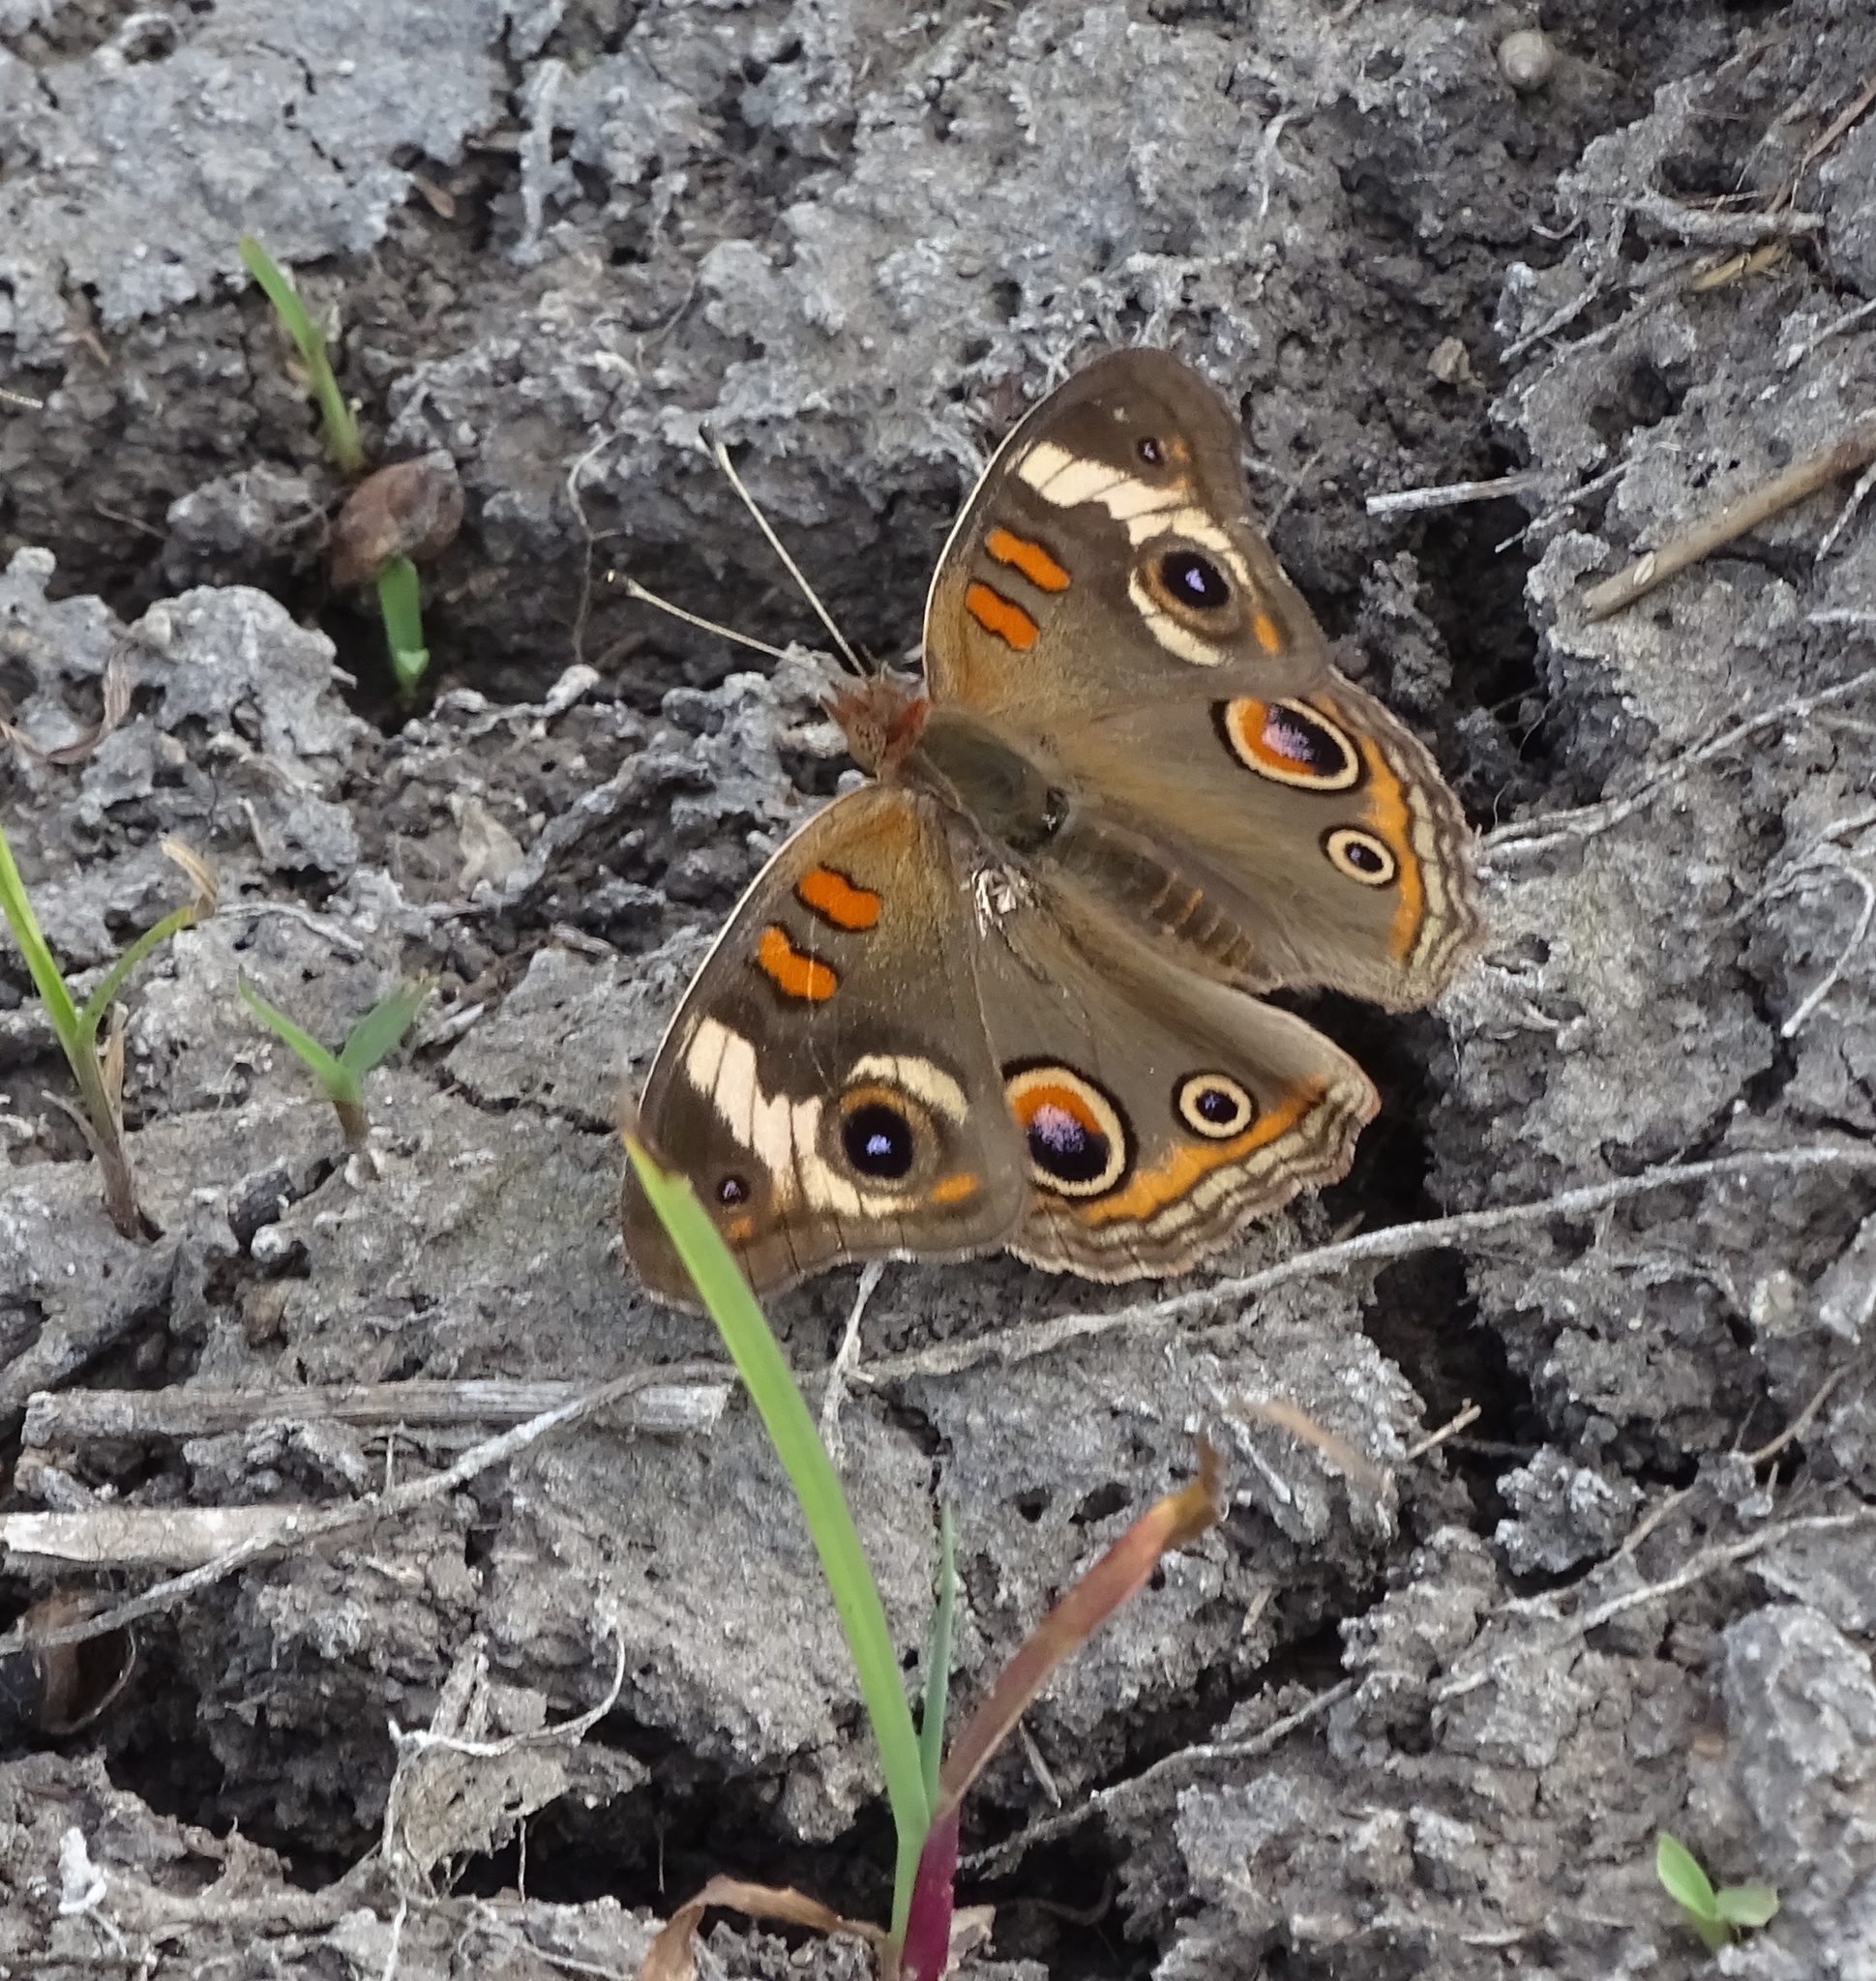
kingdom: Animalia
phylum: Arthropoda
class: Insecta
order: Lepidoptera
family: Nymphalidae
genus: Junonia
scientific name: Junonia coenia
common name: Common buckeye
